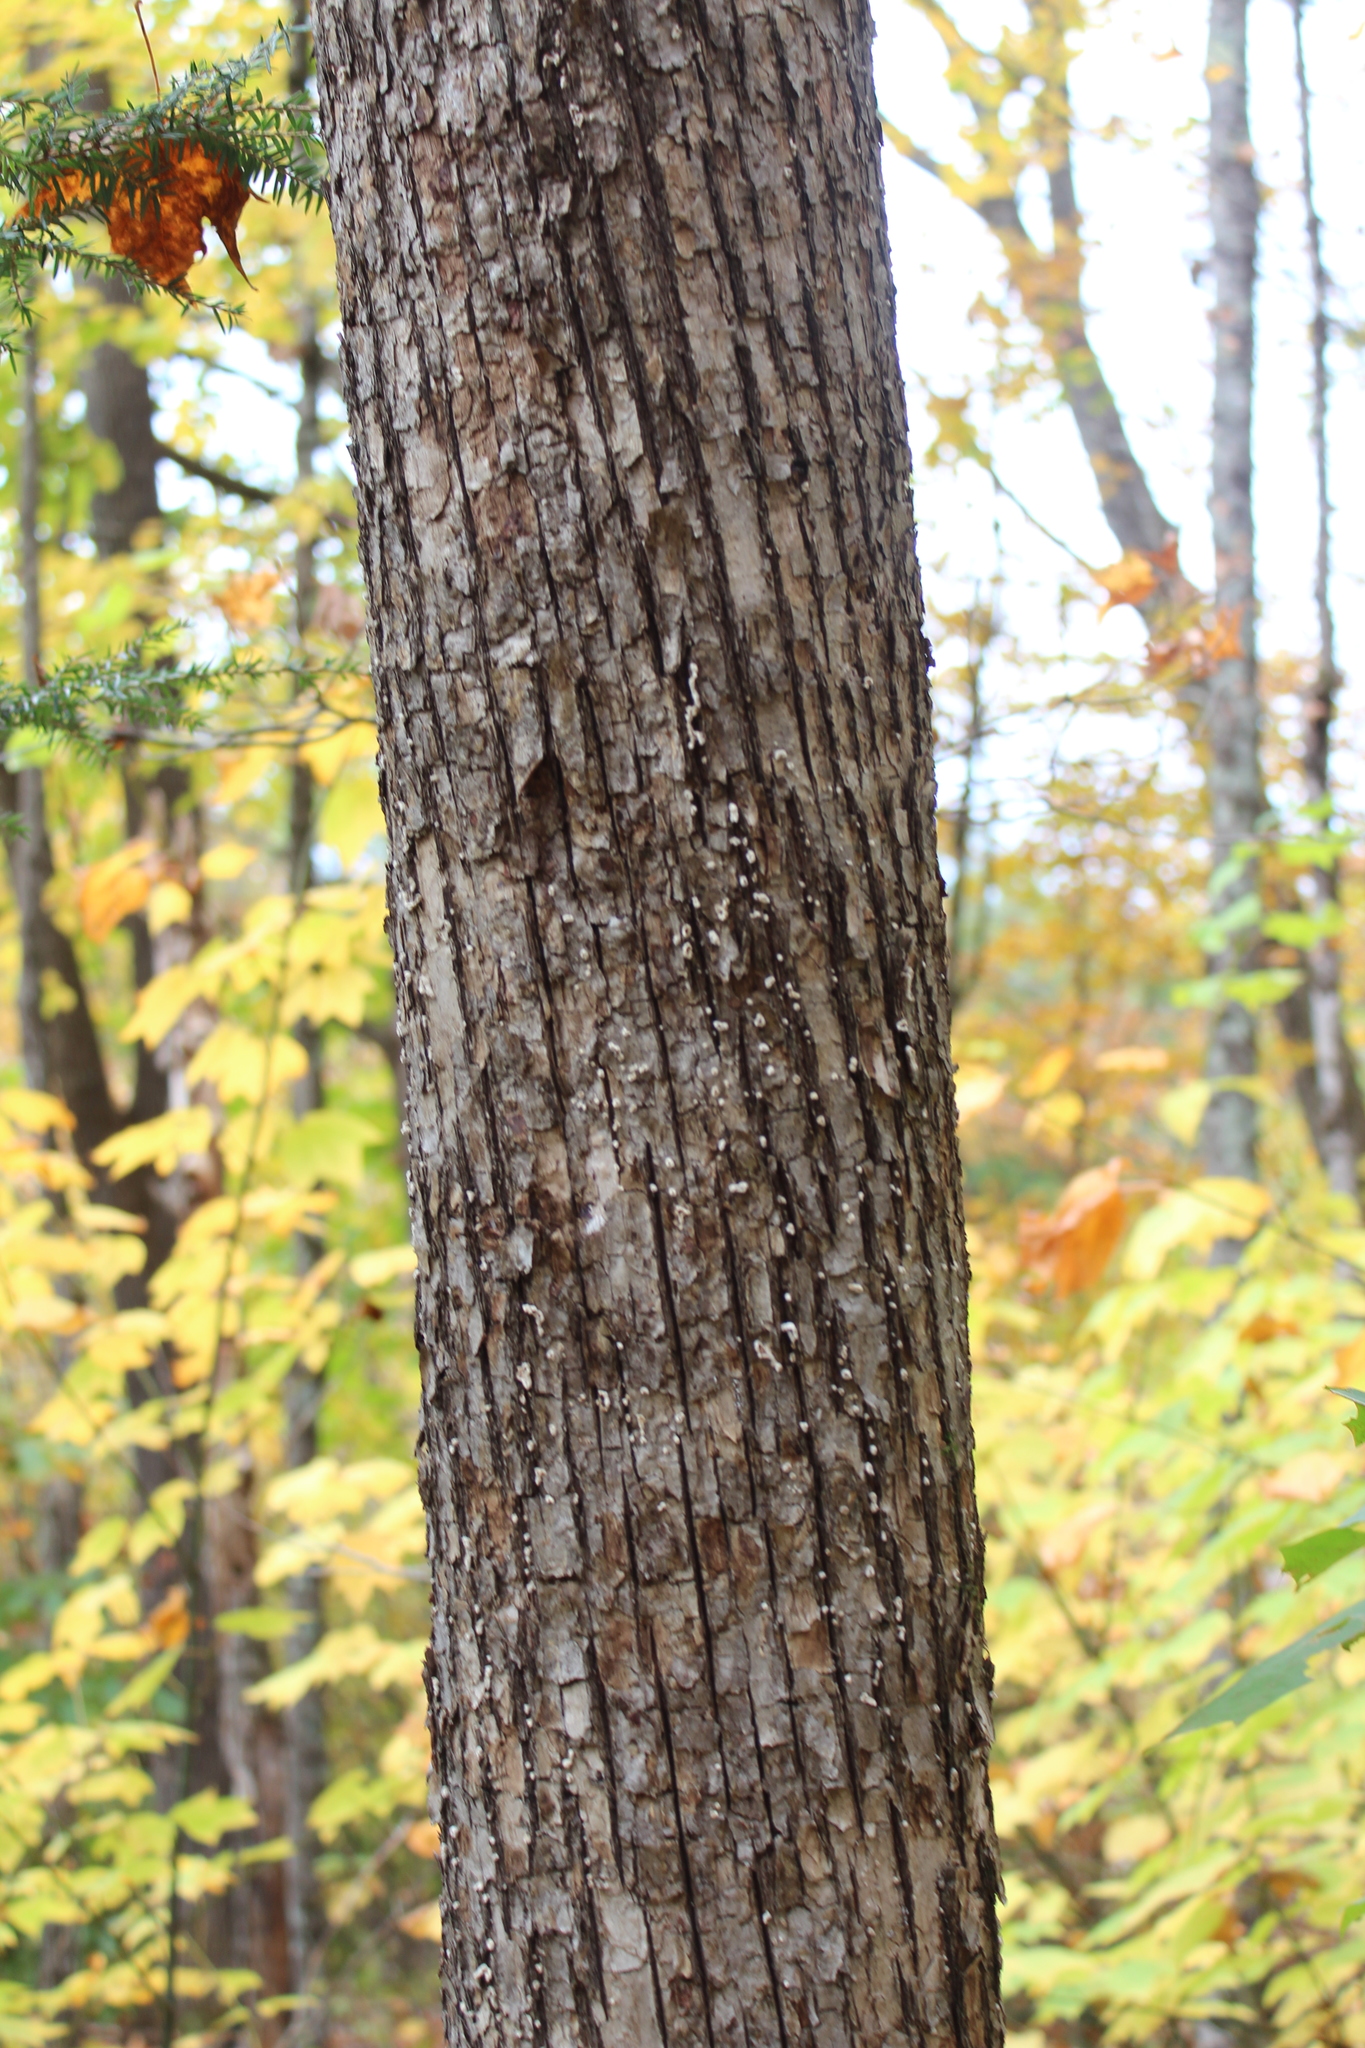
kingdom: Plantae
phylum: Tracheophyta
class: Magnoliopsida
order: Fagales
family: Betulaceae
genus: Ostrya
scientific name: Ostrya virginiana
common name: Ironwood
